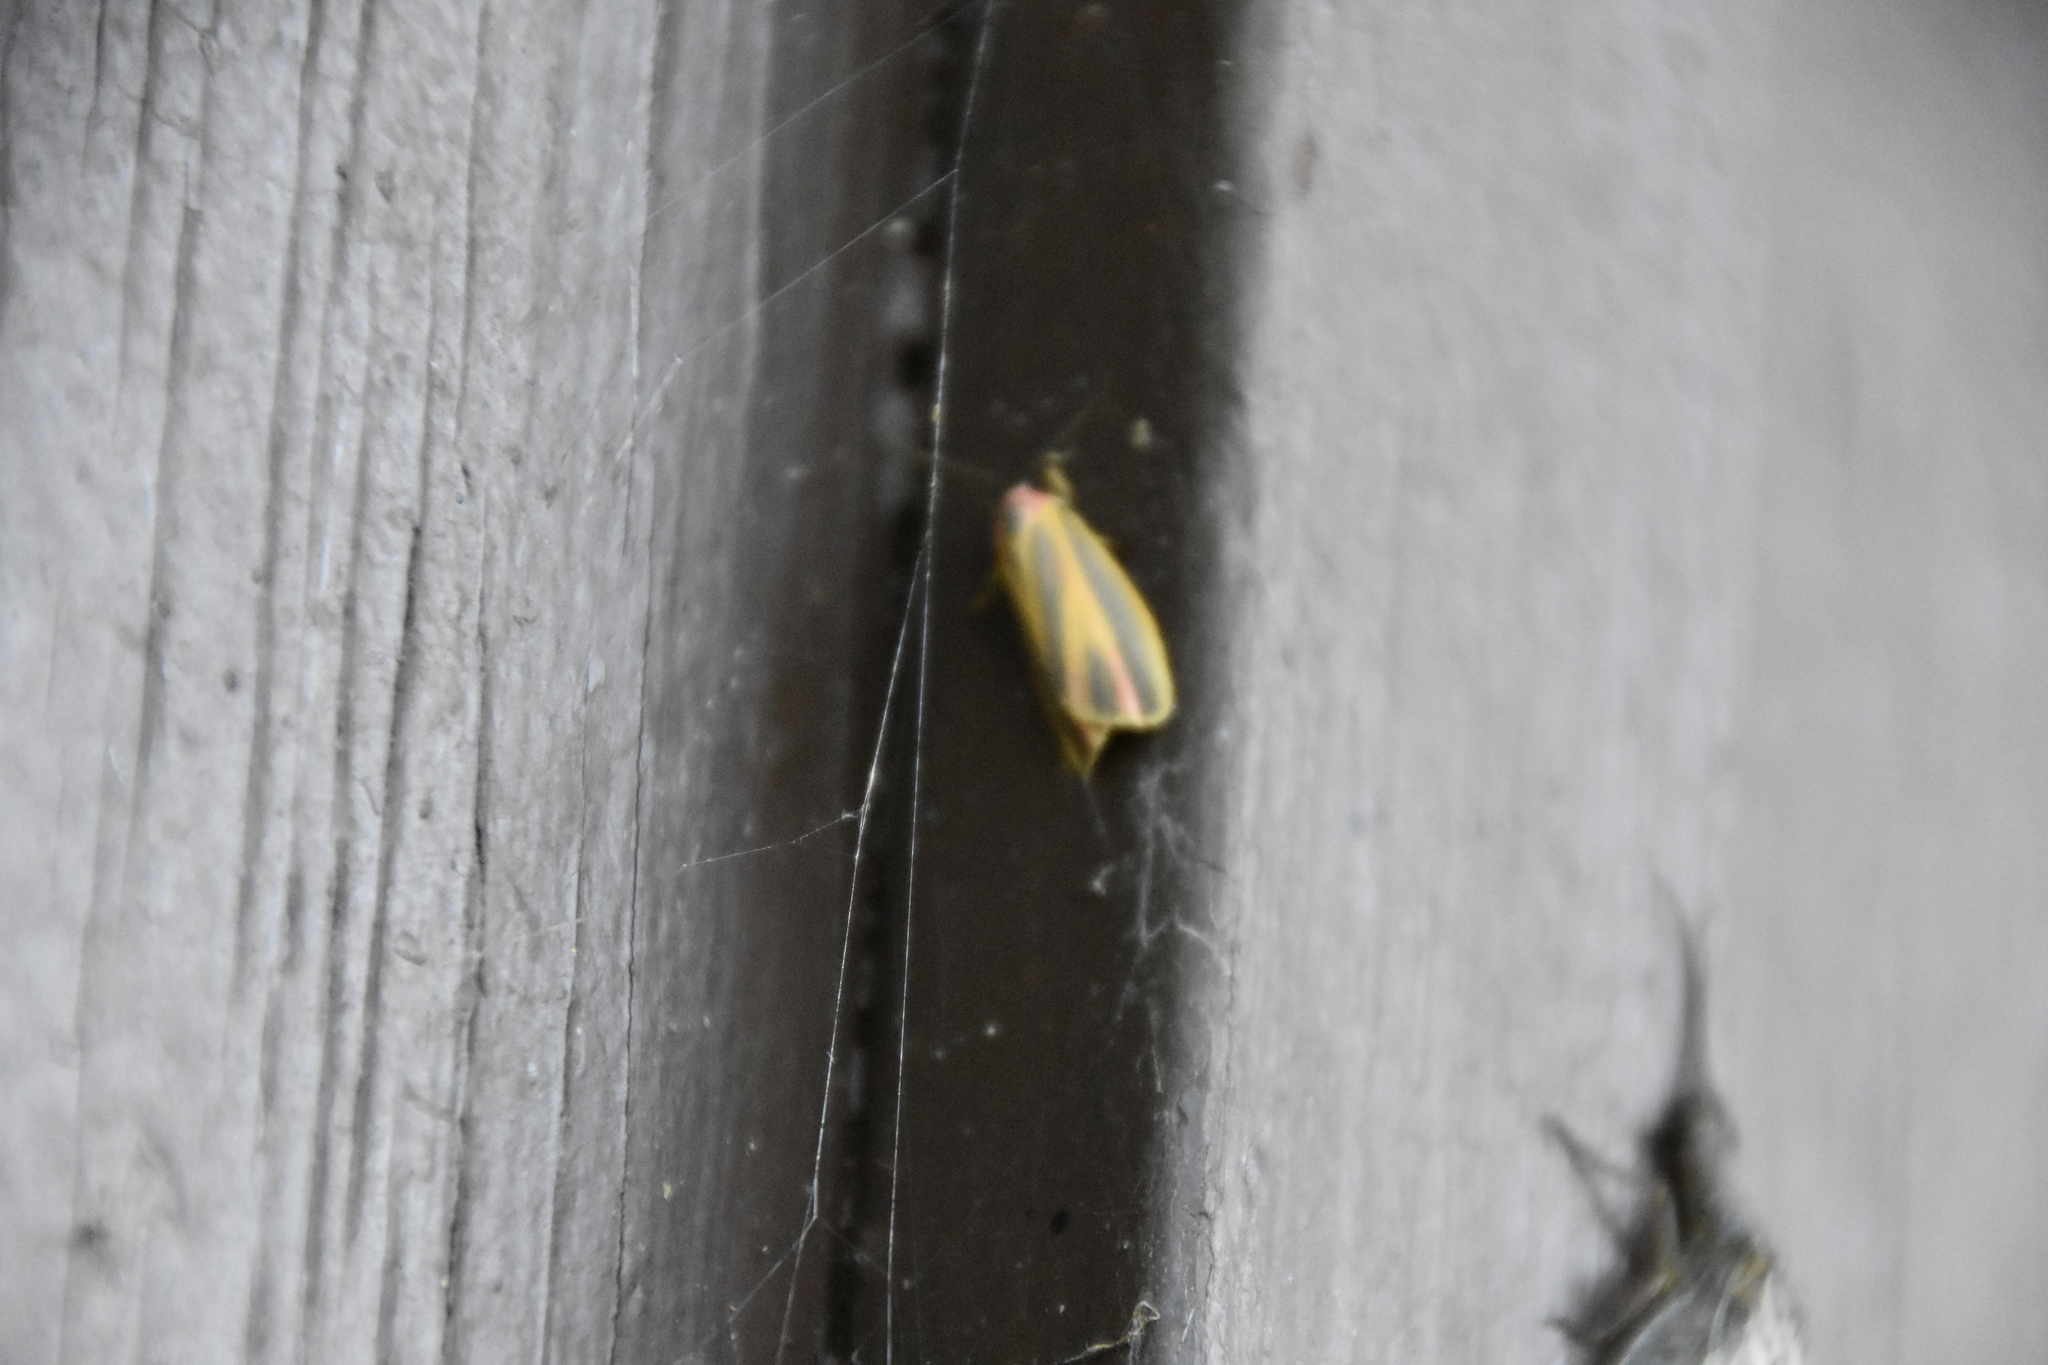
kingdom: Animalia
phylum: Arthropoda
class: Insecta
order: Lepidoptera
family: Erebidae
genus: Hypoprepia
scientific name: Hypoprepia fucosa
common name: Painted lichen moth
